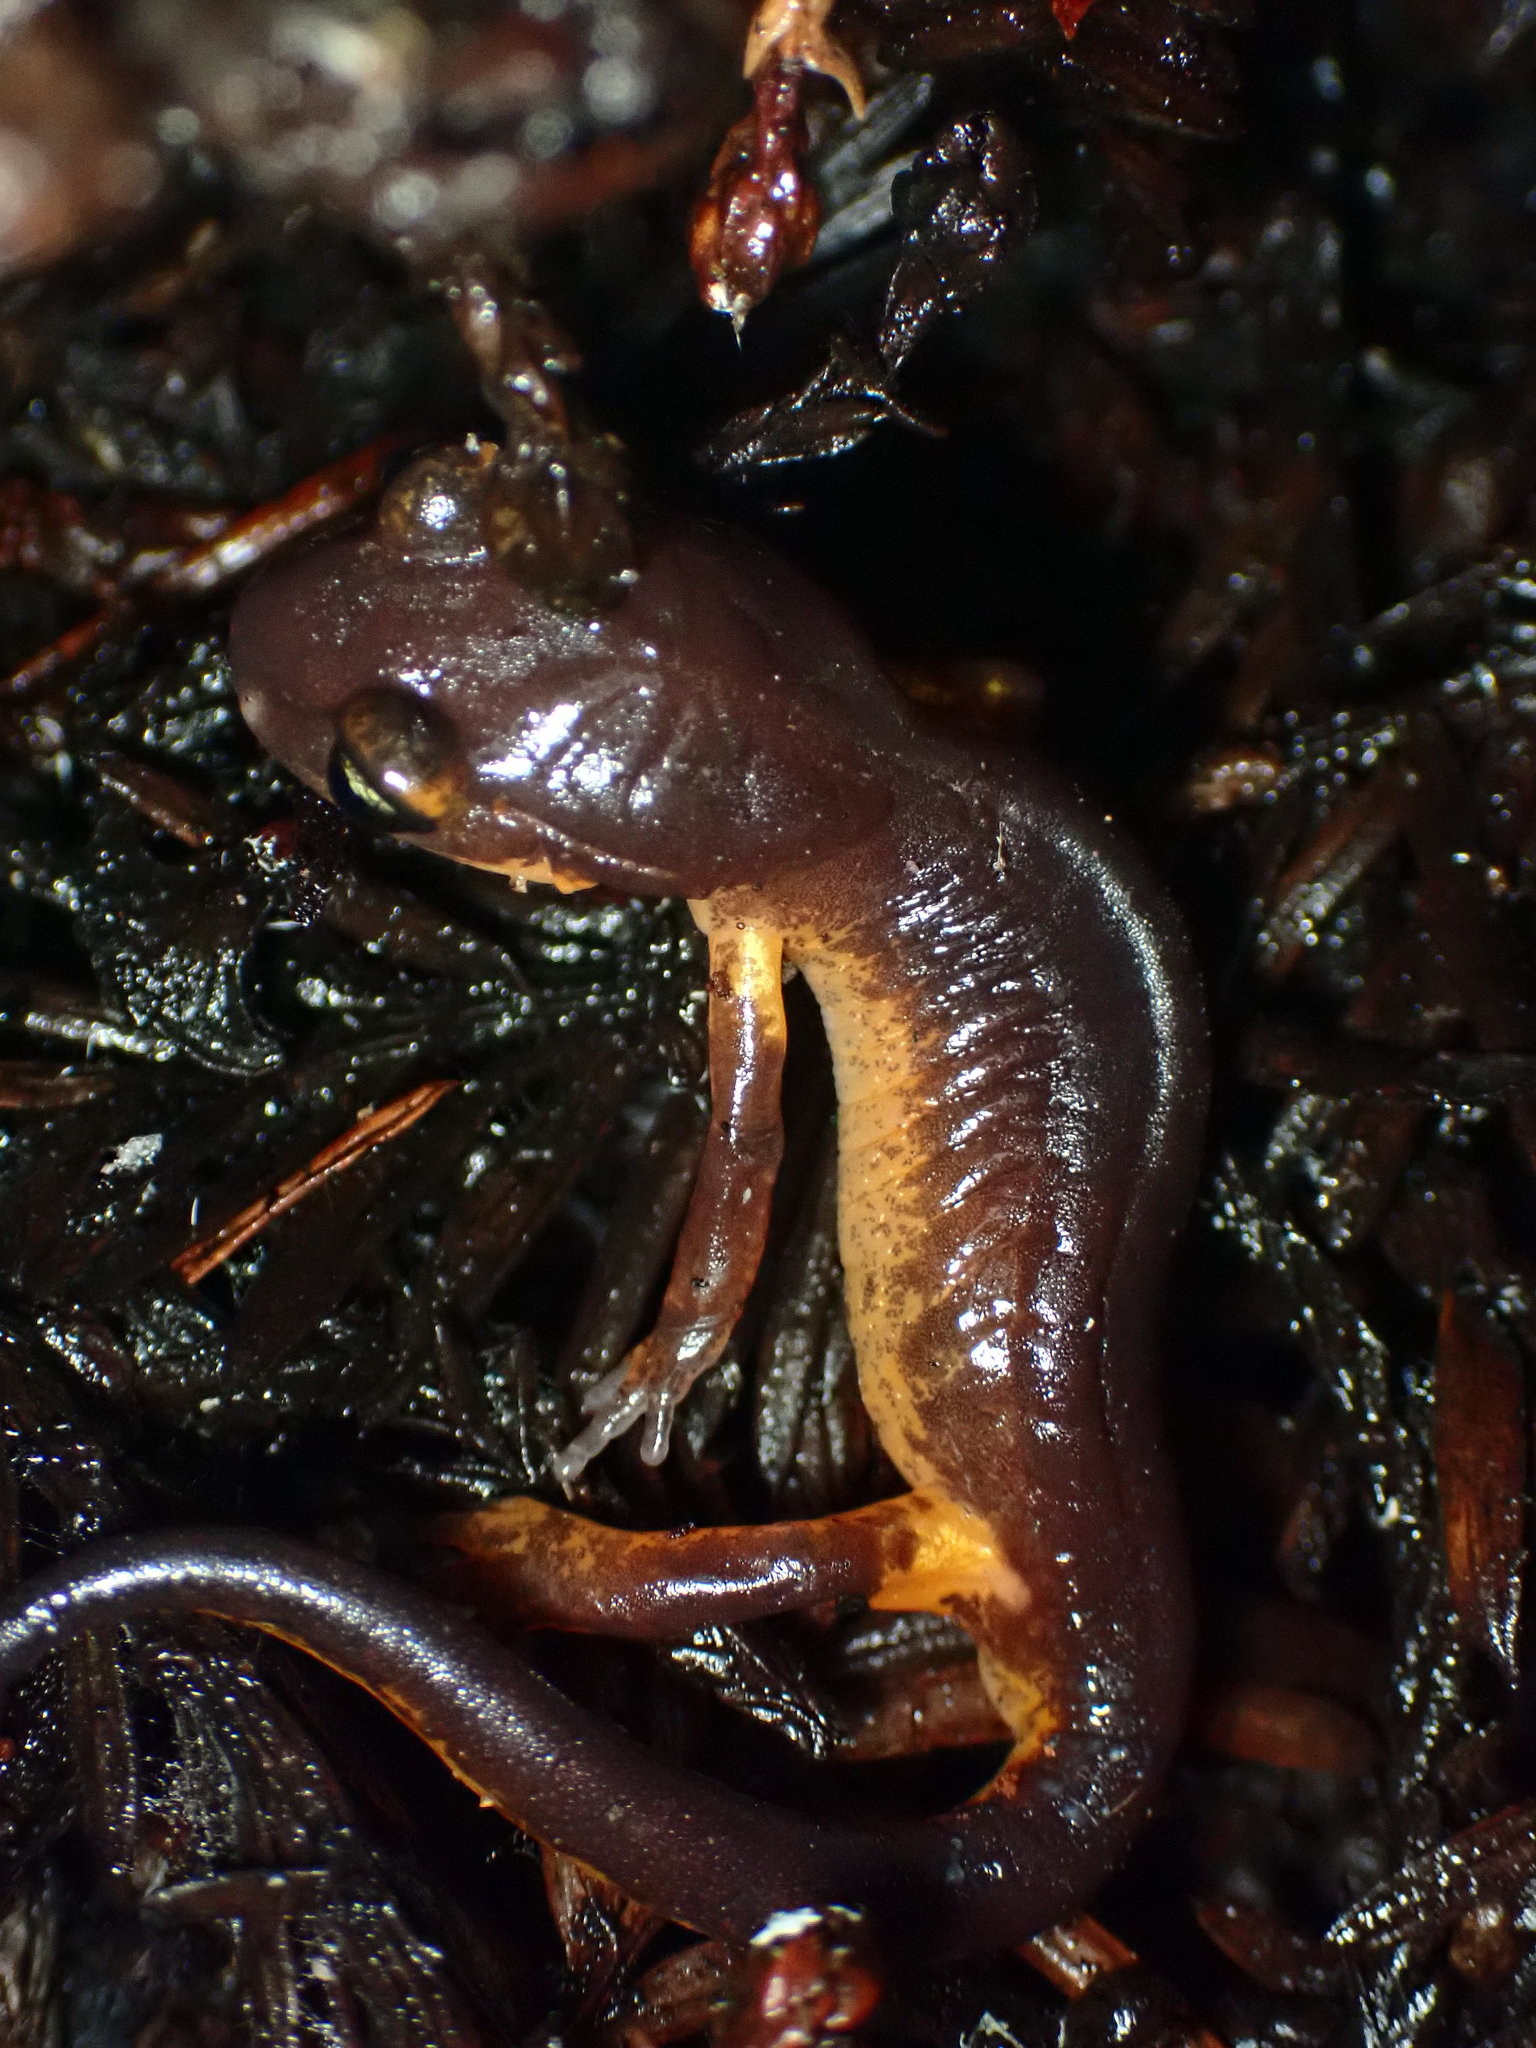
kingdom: Animalia
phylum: Chordata
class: Amphibia
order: Caudata
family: Plethodontidae
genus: Ensatina
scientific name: Ensatina eschscholtzii
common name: Ensatina
